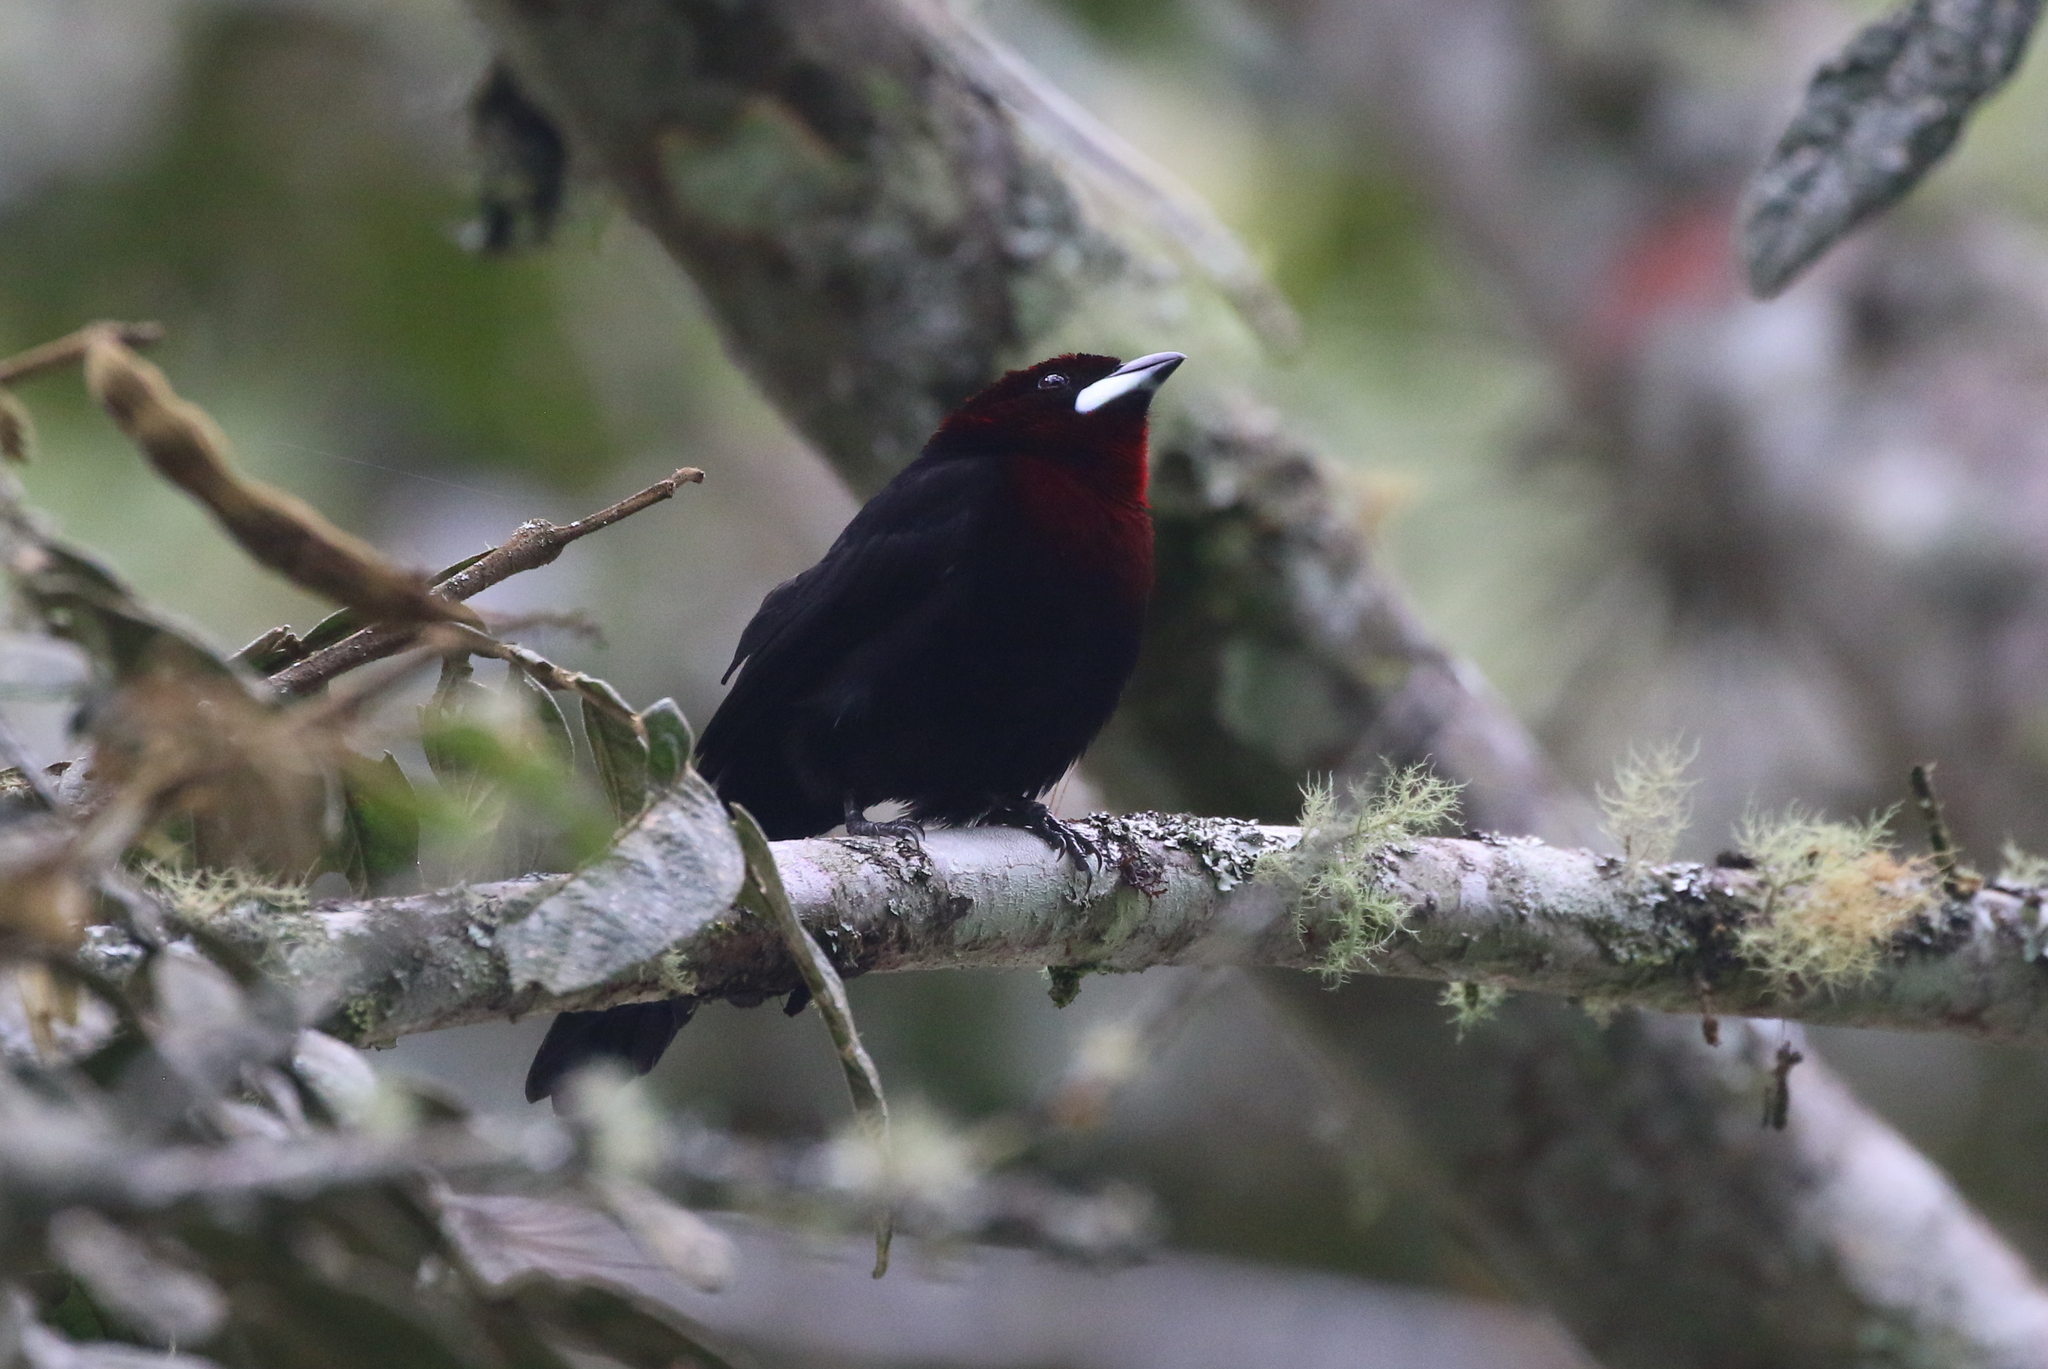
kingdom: Animalia
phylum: Chordata
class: Aves
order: Passeriformes
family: Thraupidae
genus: Ramphocelus
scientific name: Ramphocelus carbo
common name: Silver-beaked tanager
